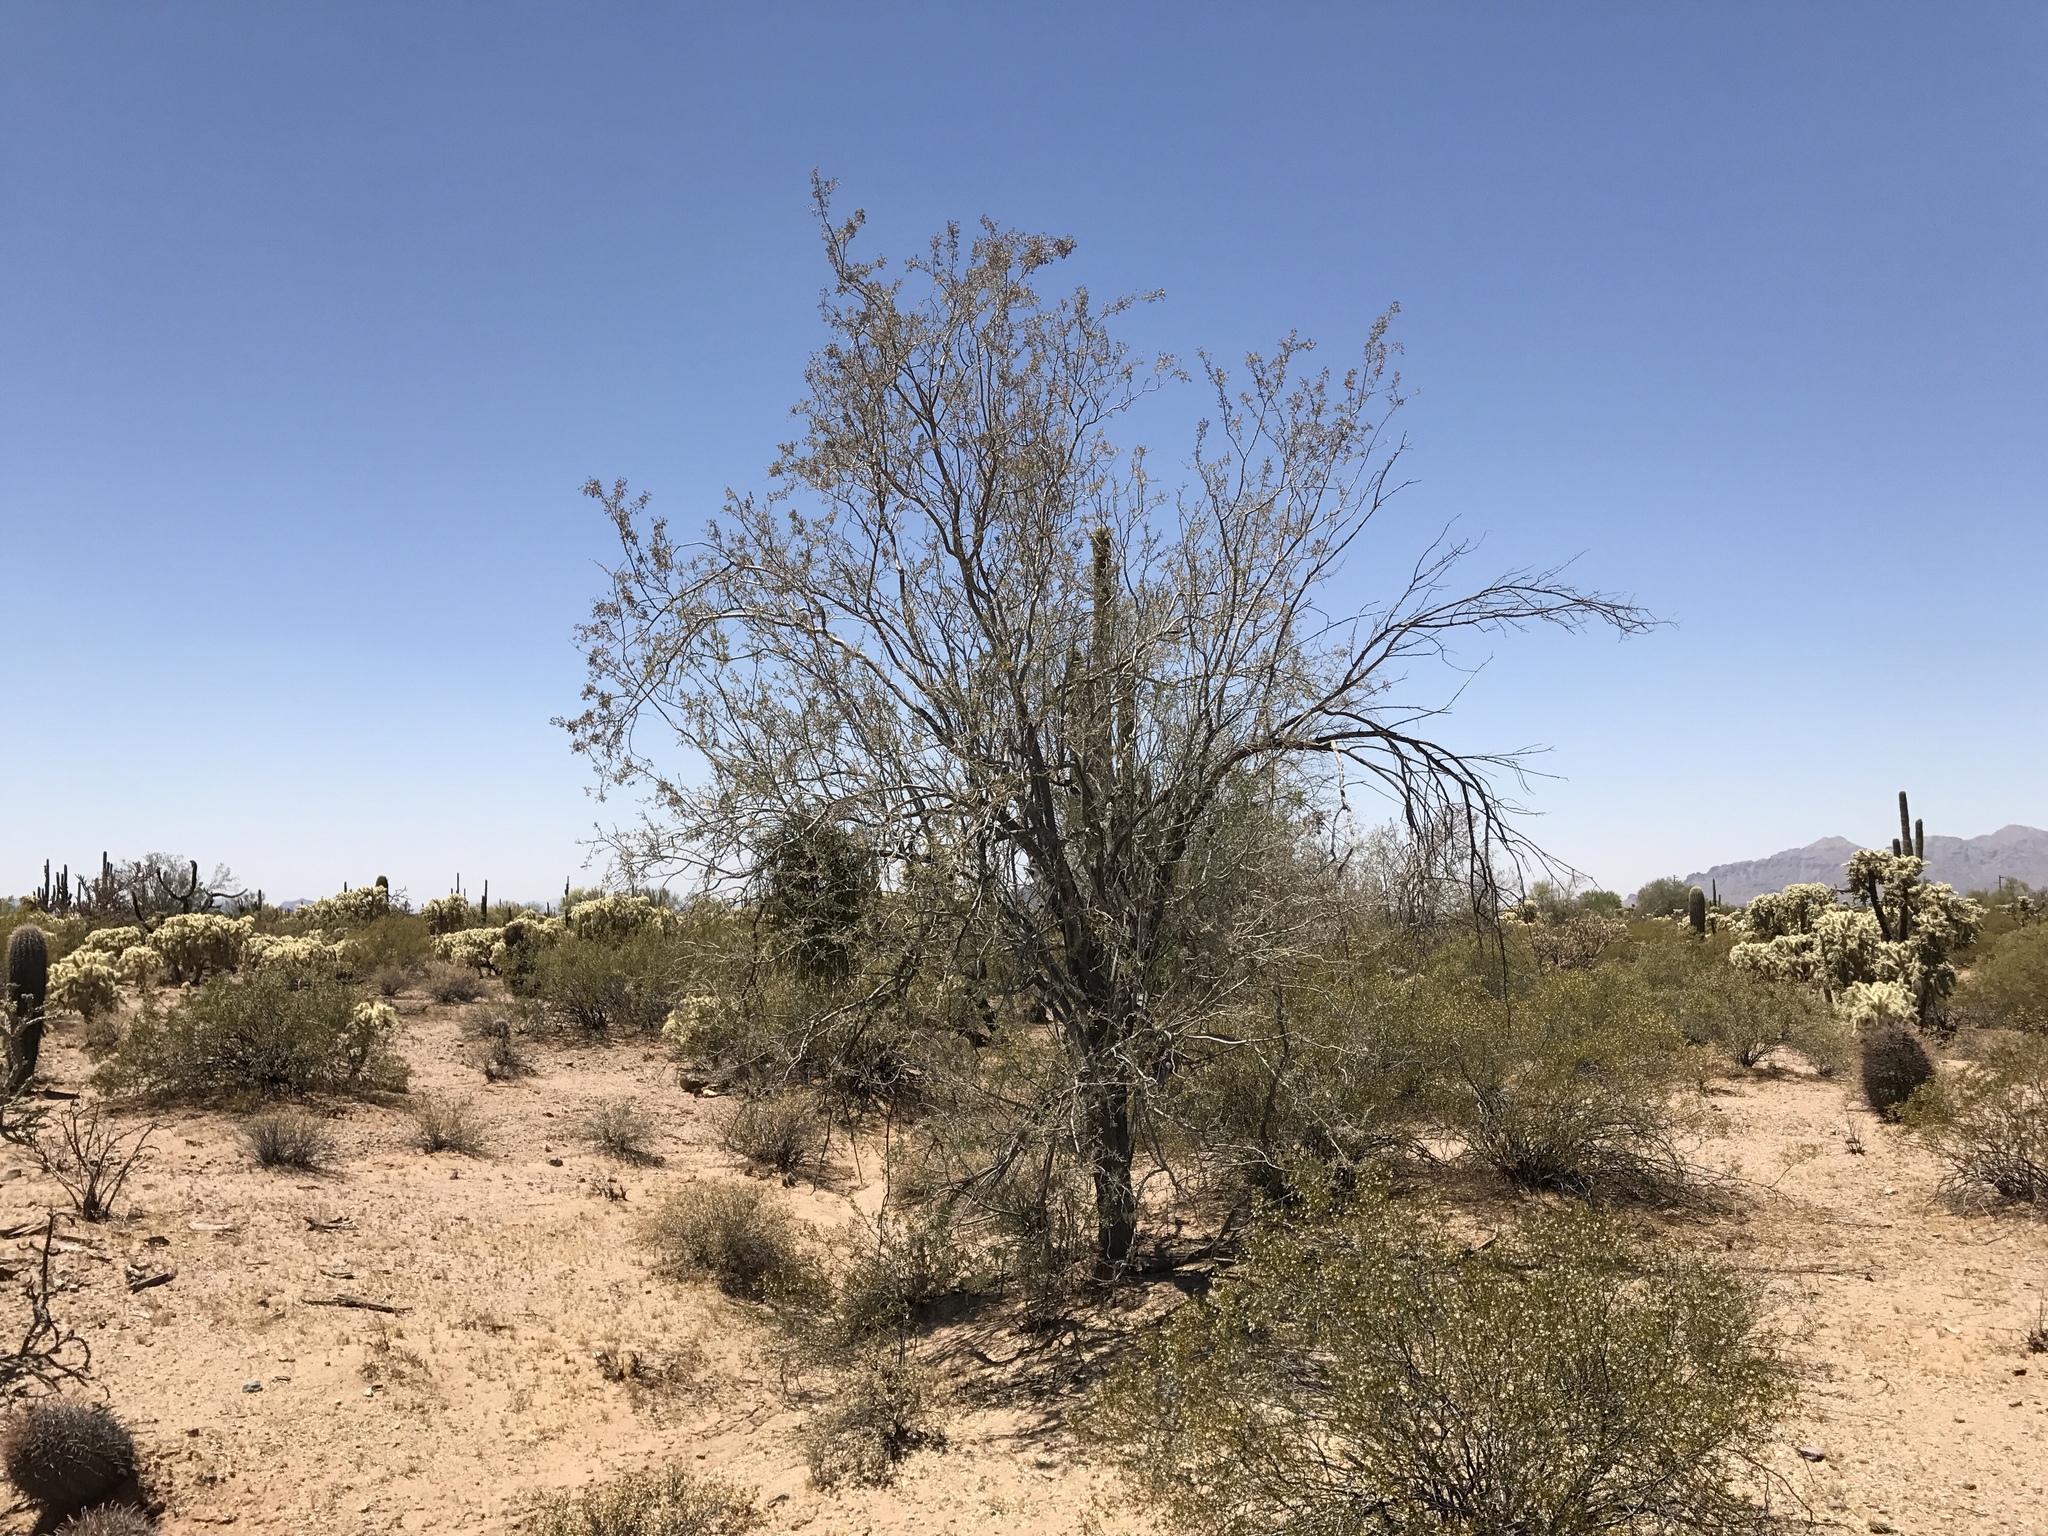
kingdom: Plantae
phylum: Tracheophyta
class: Magnoliopsida
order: Fabales
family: Fabaceae
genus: Olneya
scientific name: Olneya tesota
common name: Desert ironwood
